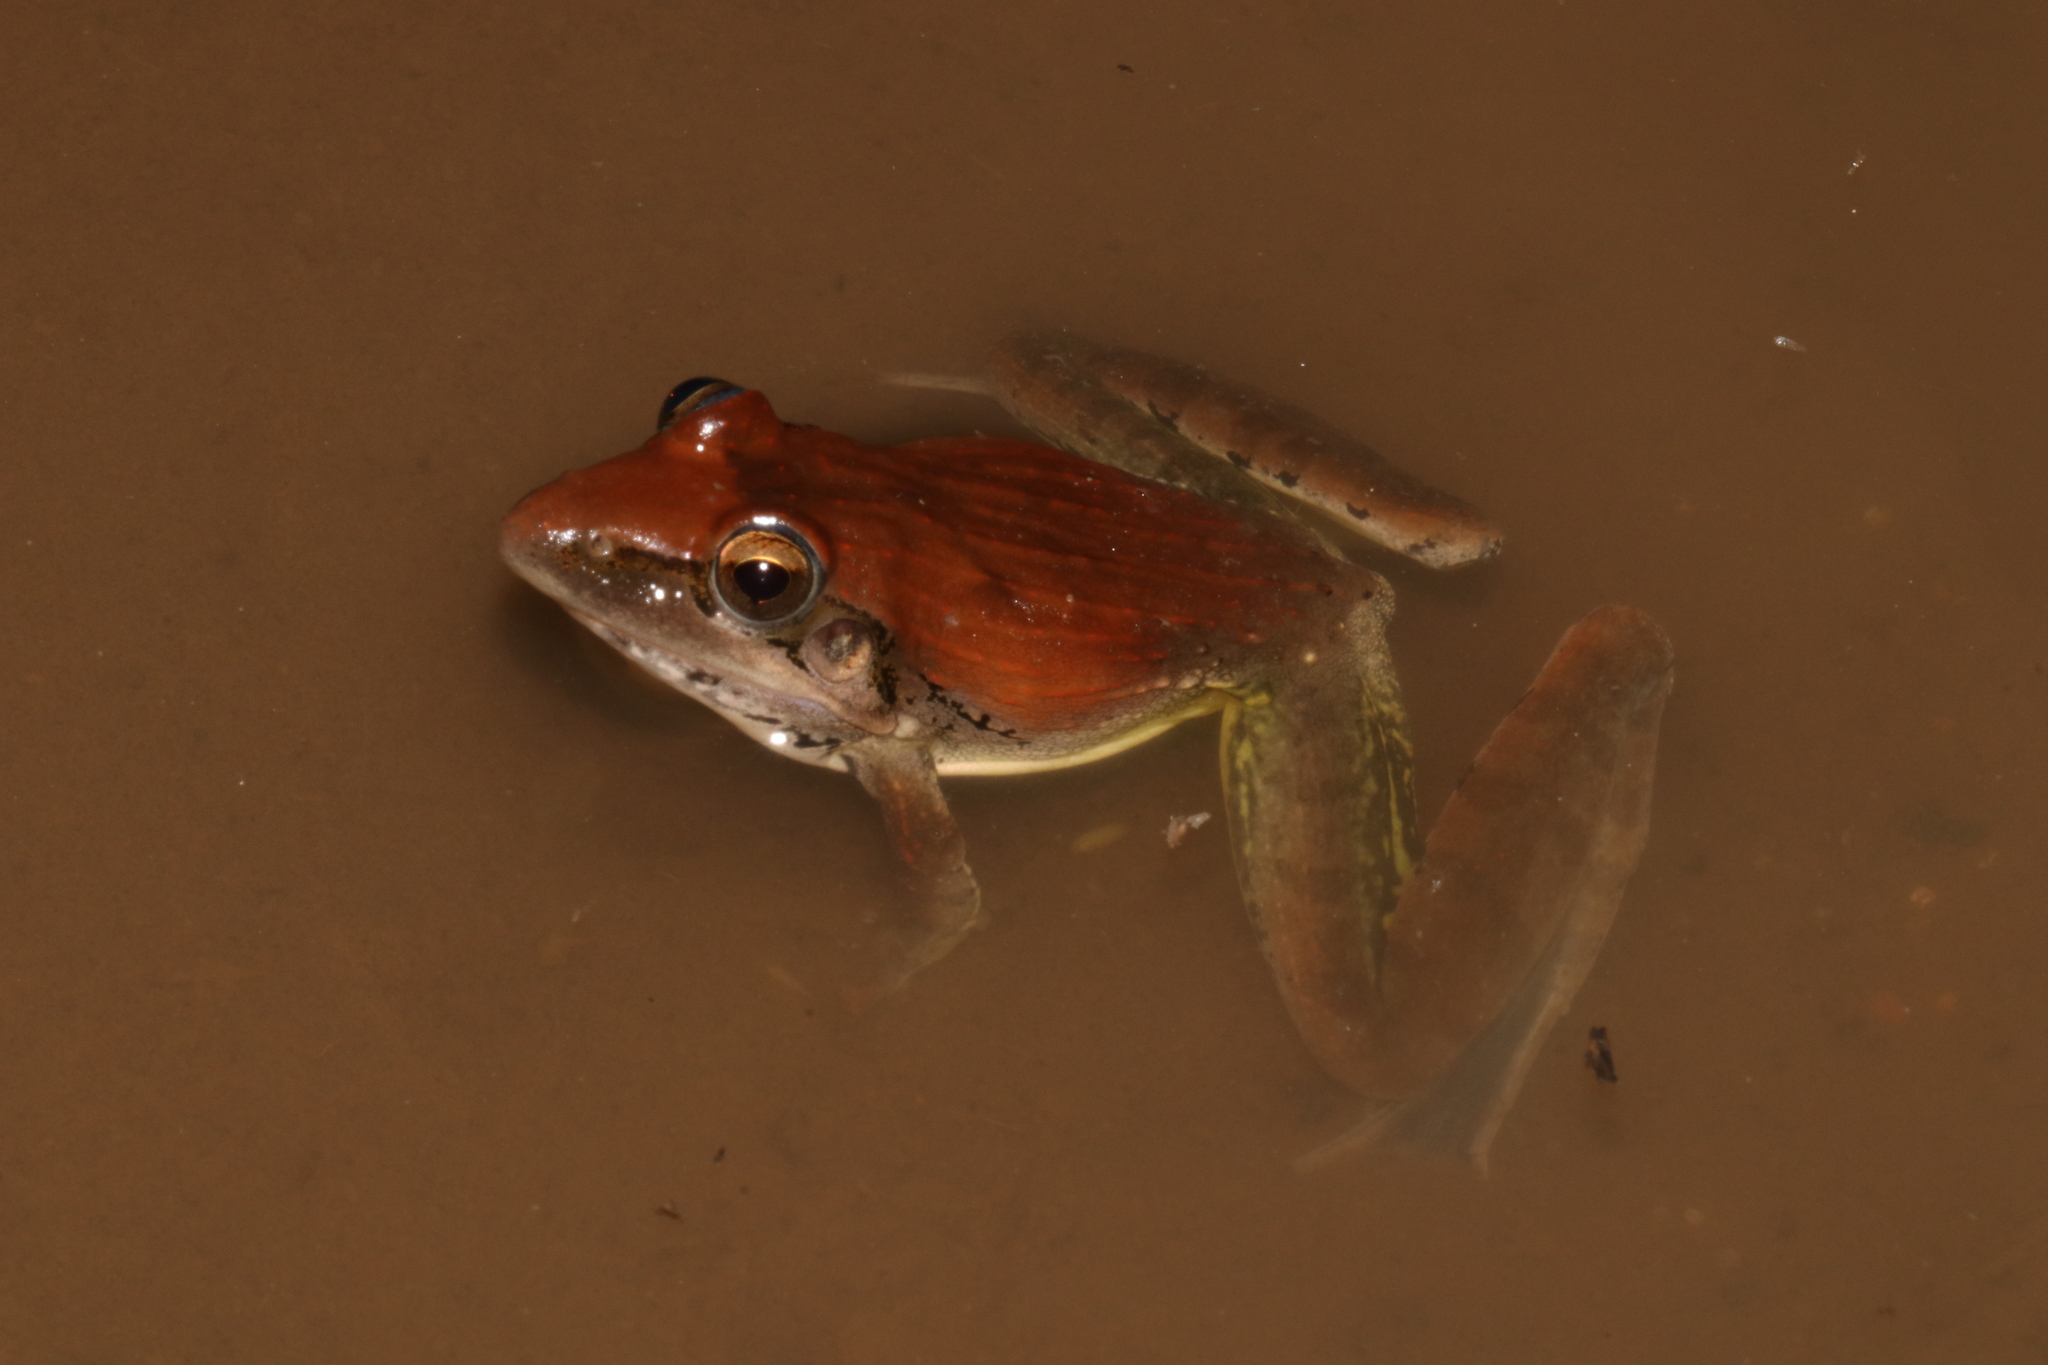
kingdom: Animalia
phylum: Chordata
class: Amphibia
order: Anura
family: Ptychadenidae
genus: Ptychadena
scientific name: Ptychadena anchietae
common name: Anchieta's ridged frog
